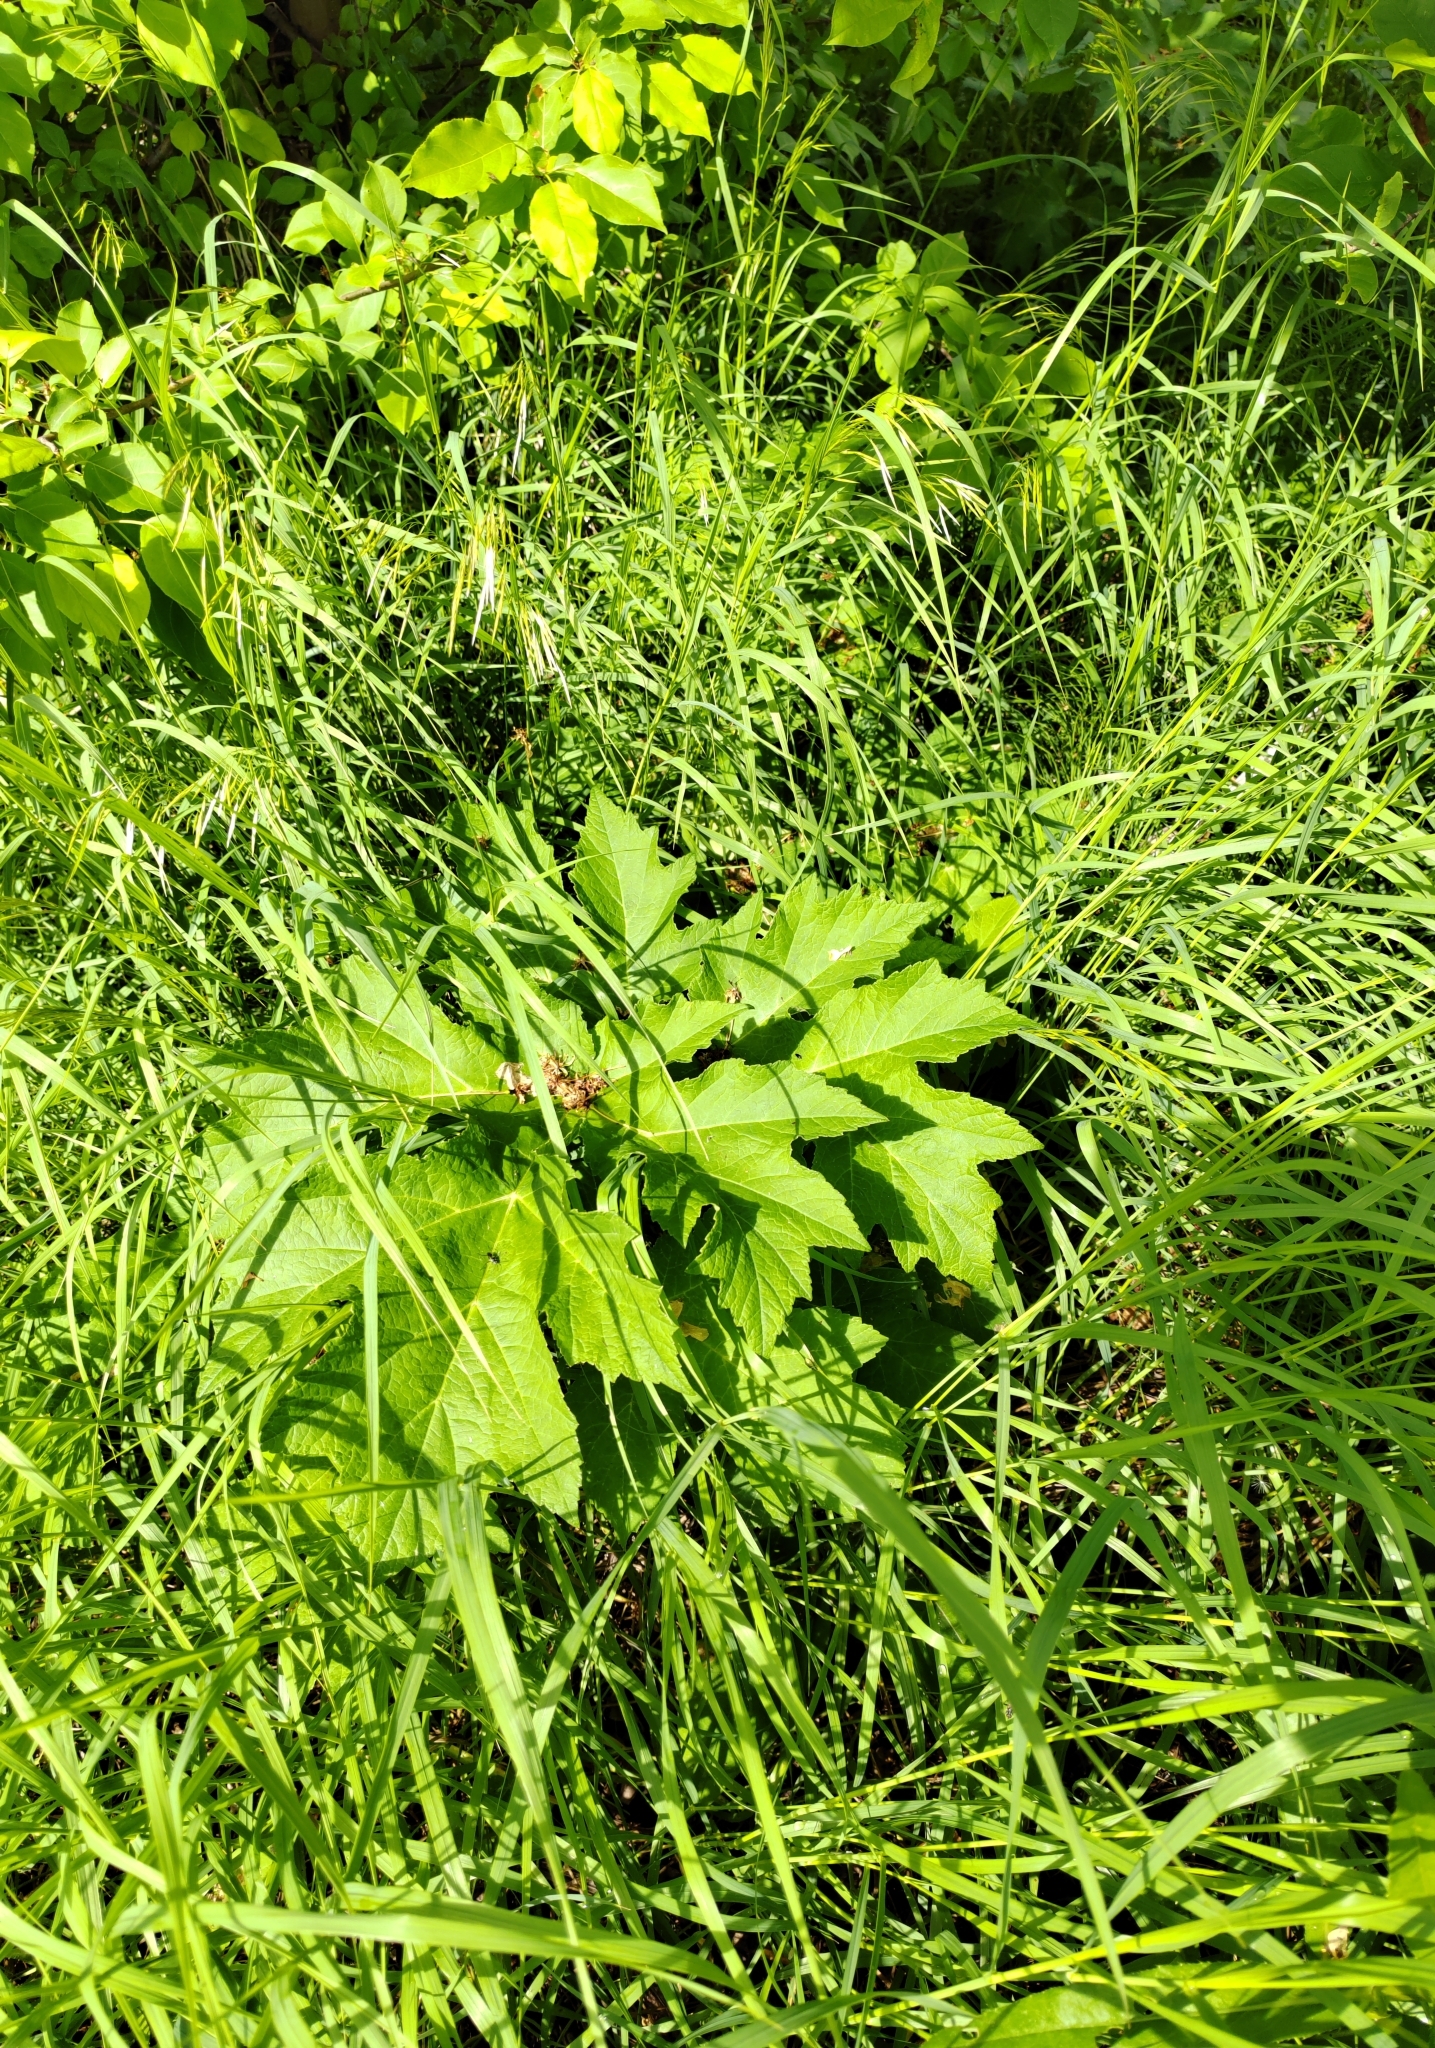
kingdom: Plantae
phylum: Tracheophyta
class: Magnoliopsida
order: Apiales
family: Apiaceae
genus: Heracleum
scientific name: Heracleum sosnowskyi
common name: Sosnowsky's hogweed
